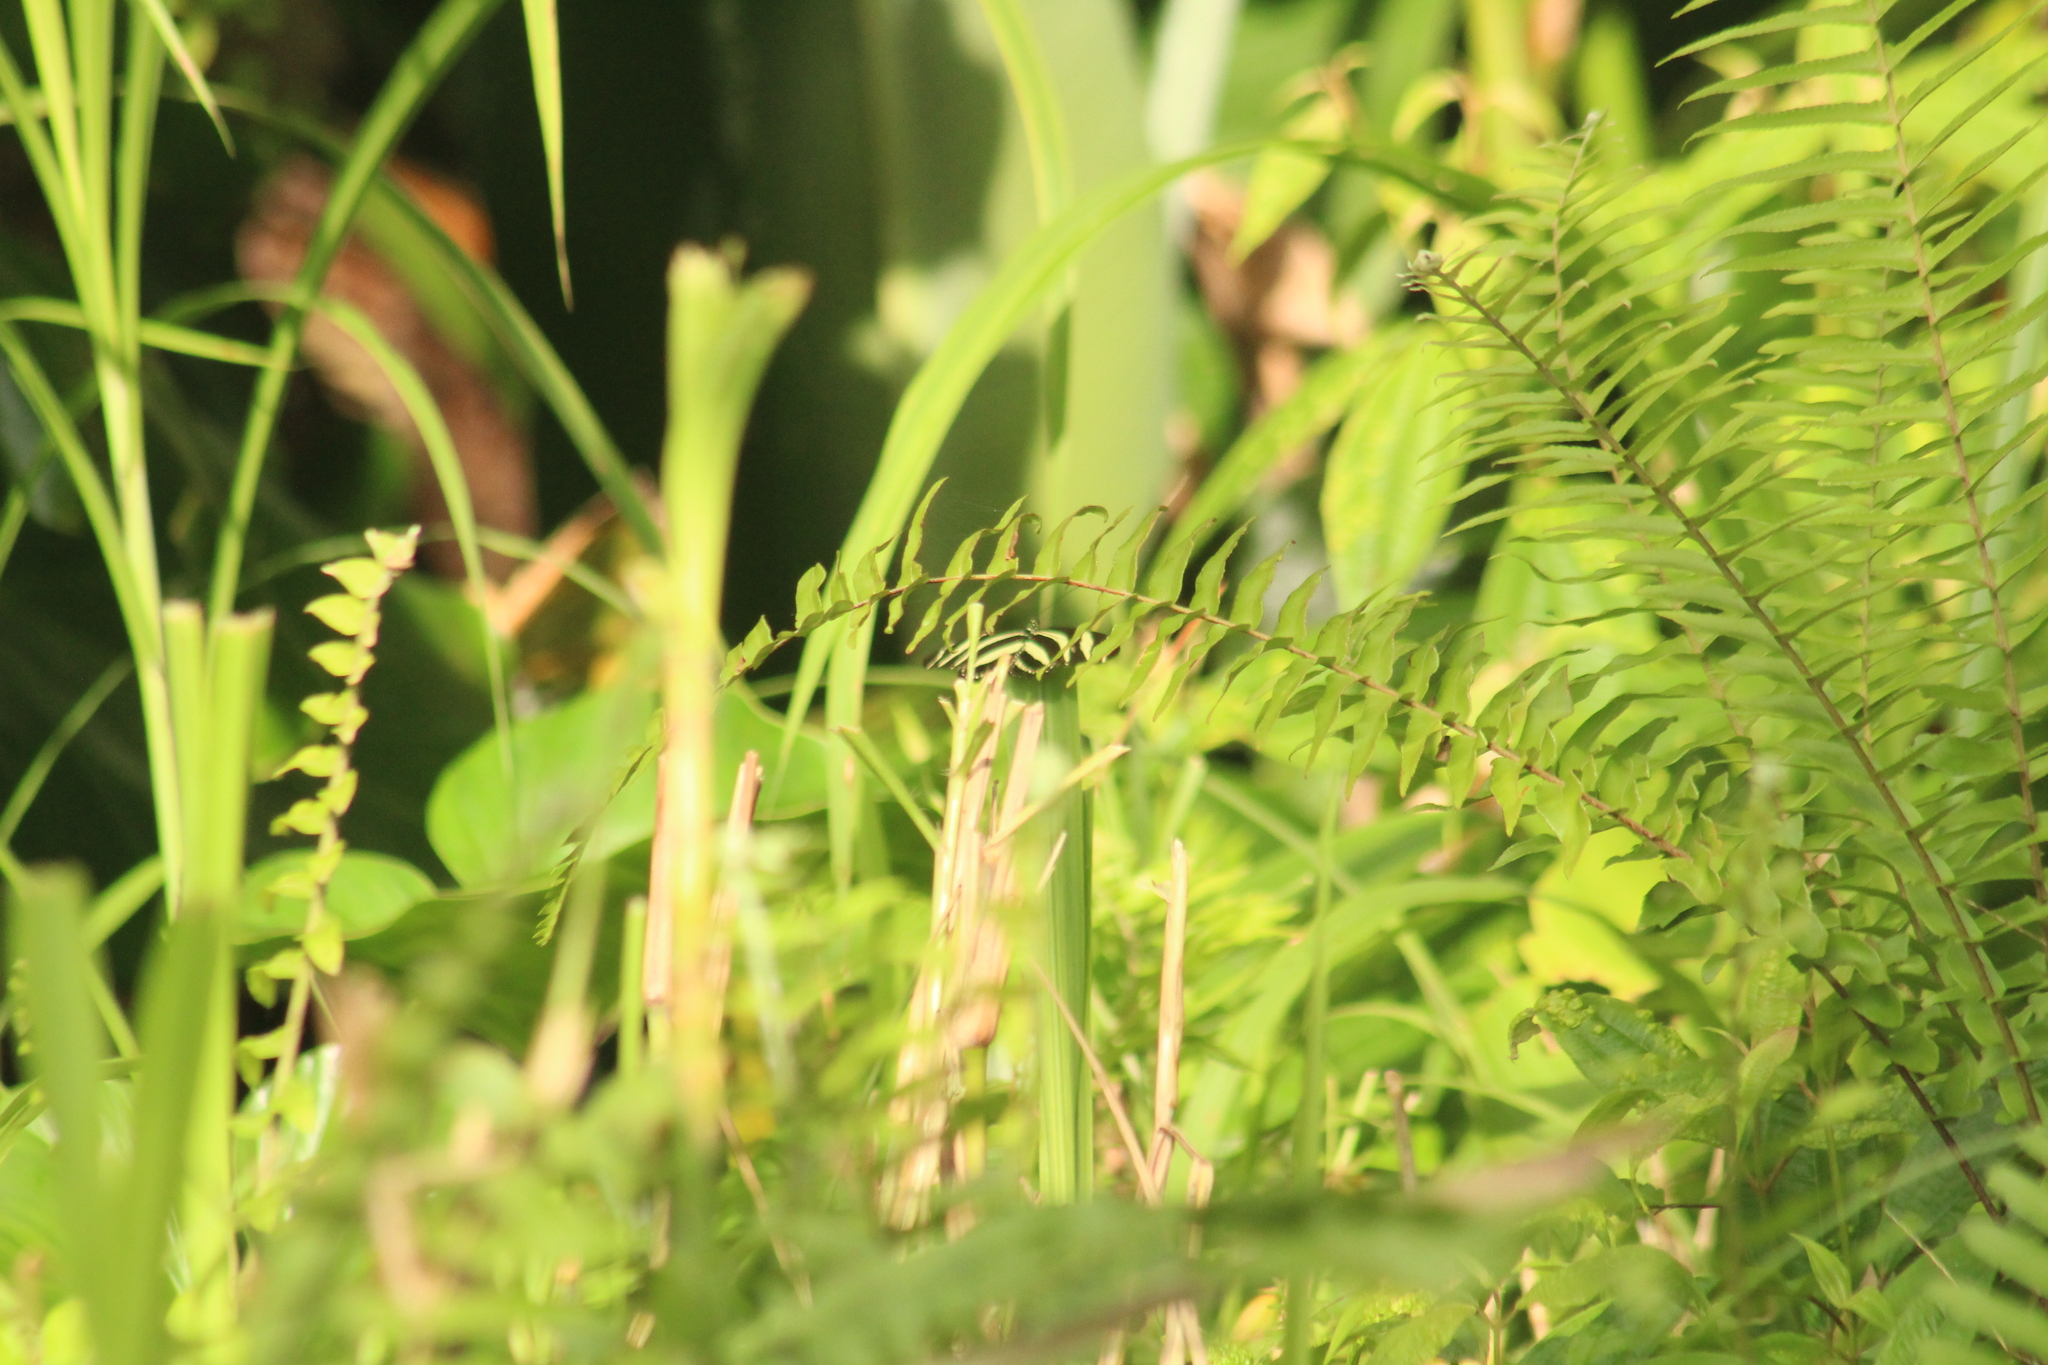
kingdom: Animalia
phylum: Arthropoda
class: Insecta
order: Lepidoptera
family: Nymphalidae
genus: Heliconius
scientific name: Heliconius charithonia
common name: Zebra long wing
